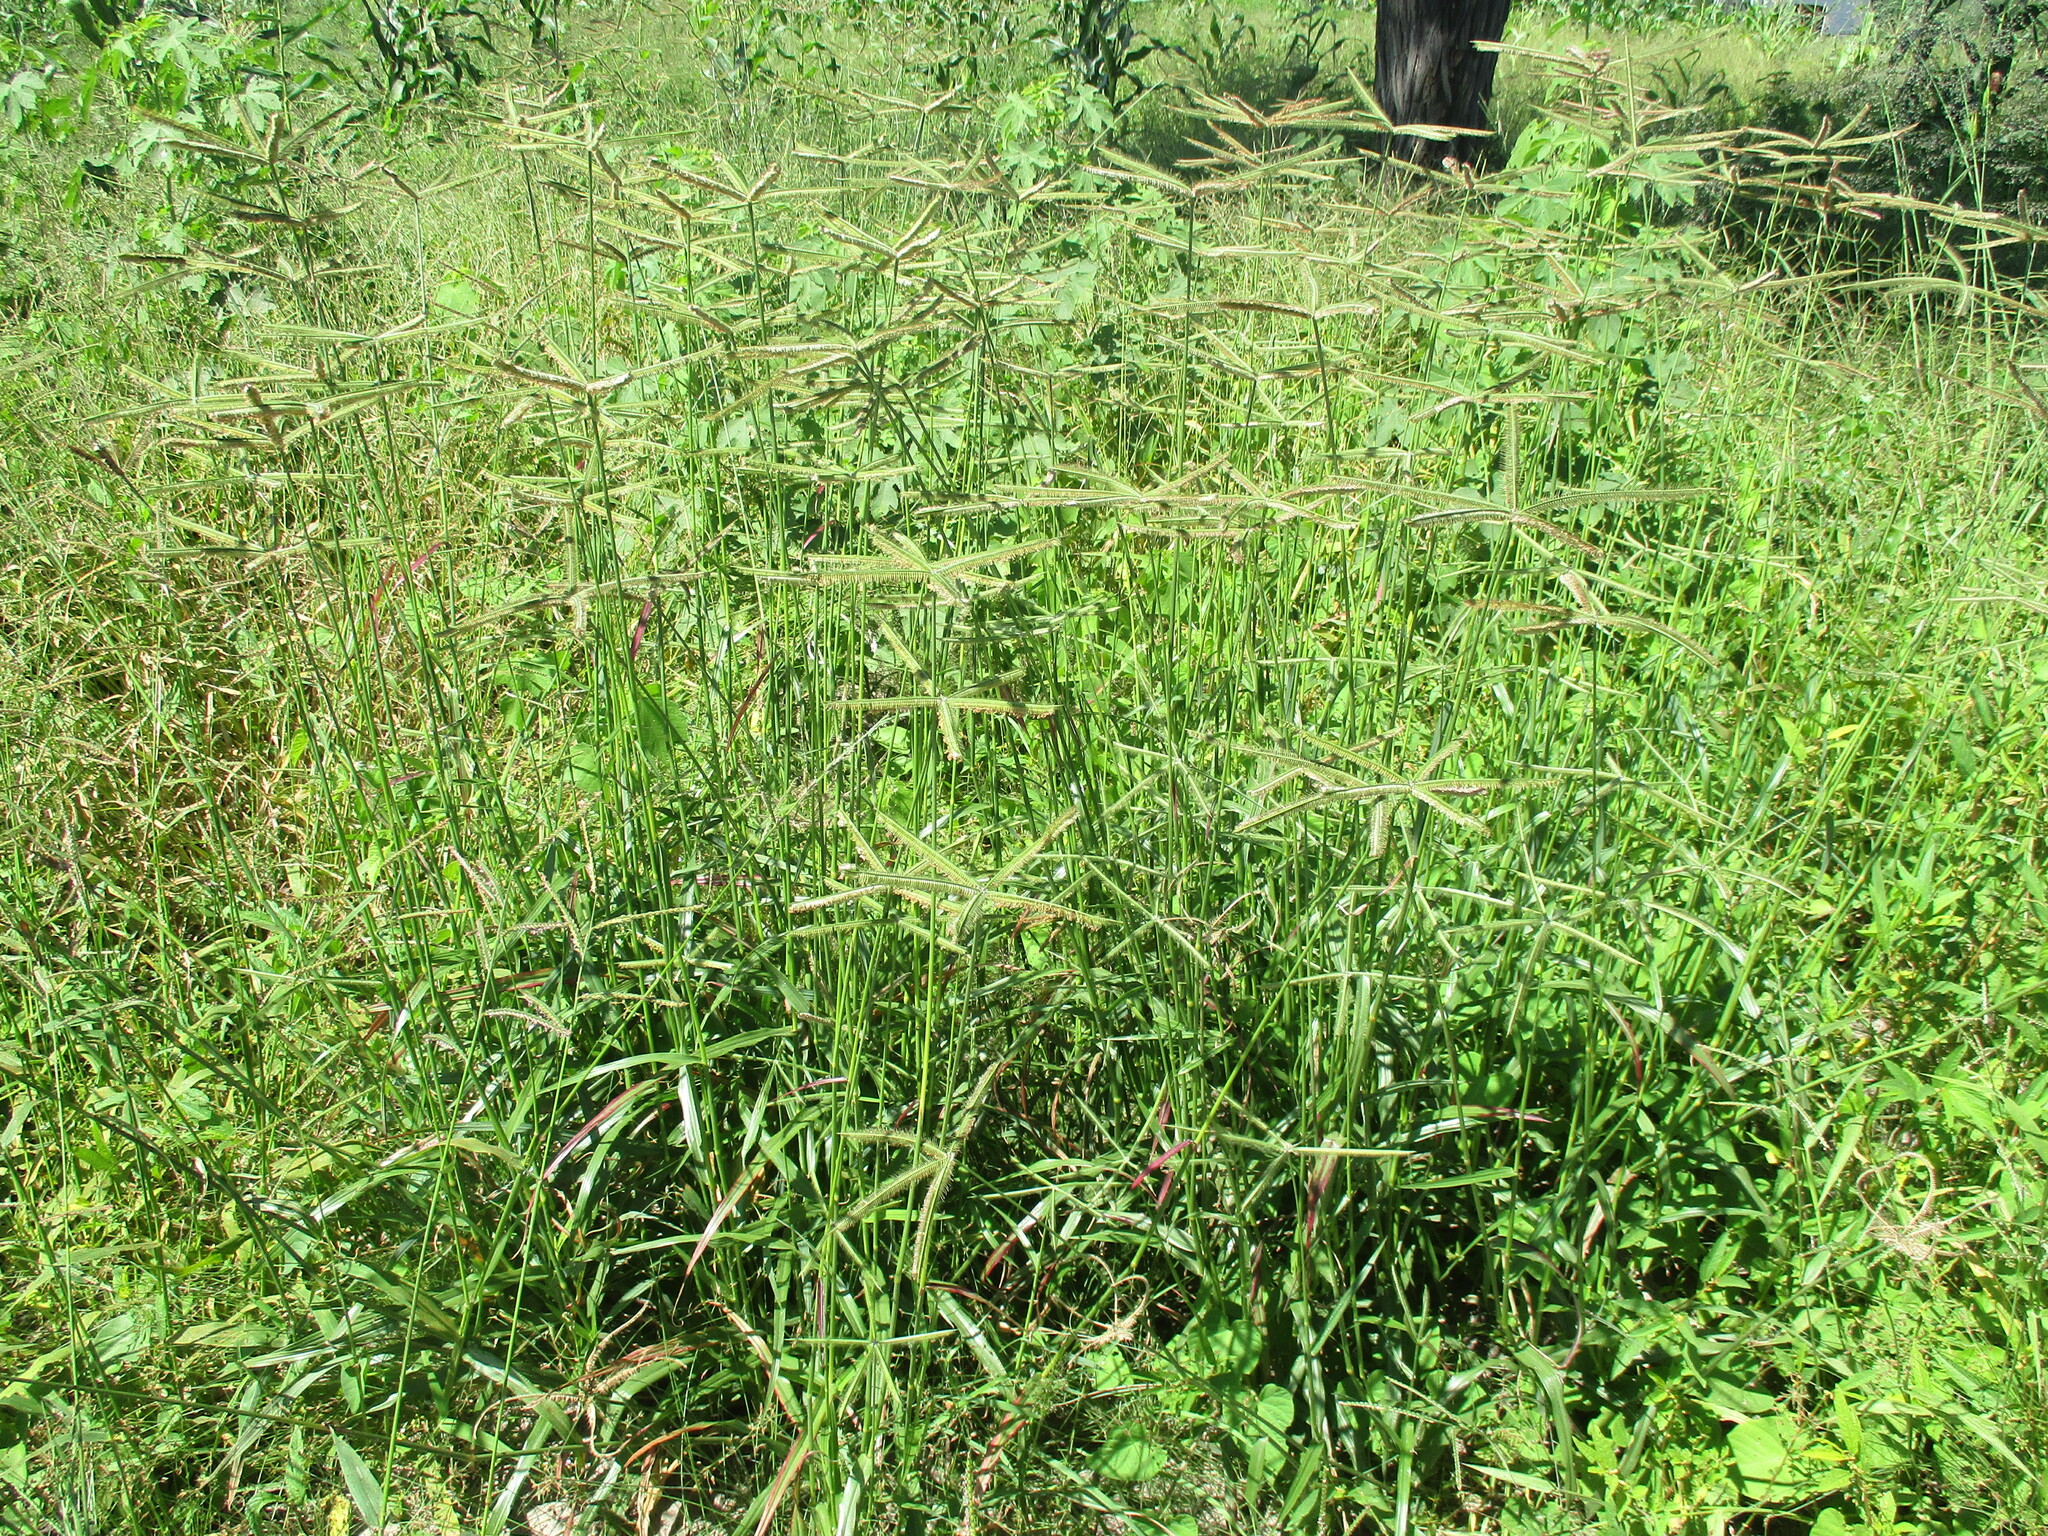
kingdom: Plantae
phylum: Tracheophyta
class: Liliopsida
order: Poales
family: Poaceae
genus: Dactyloctenium
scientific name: Dactyloctenium giganteum
